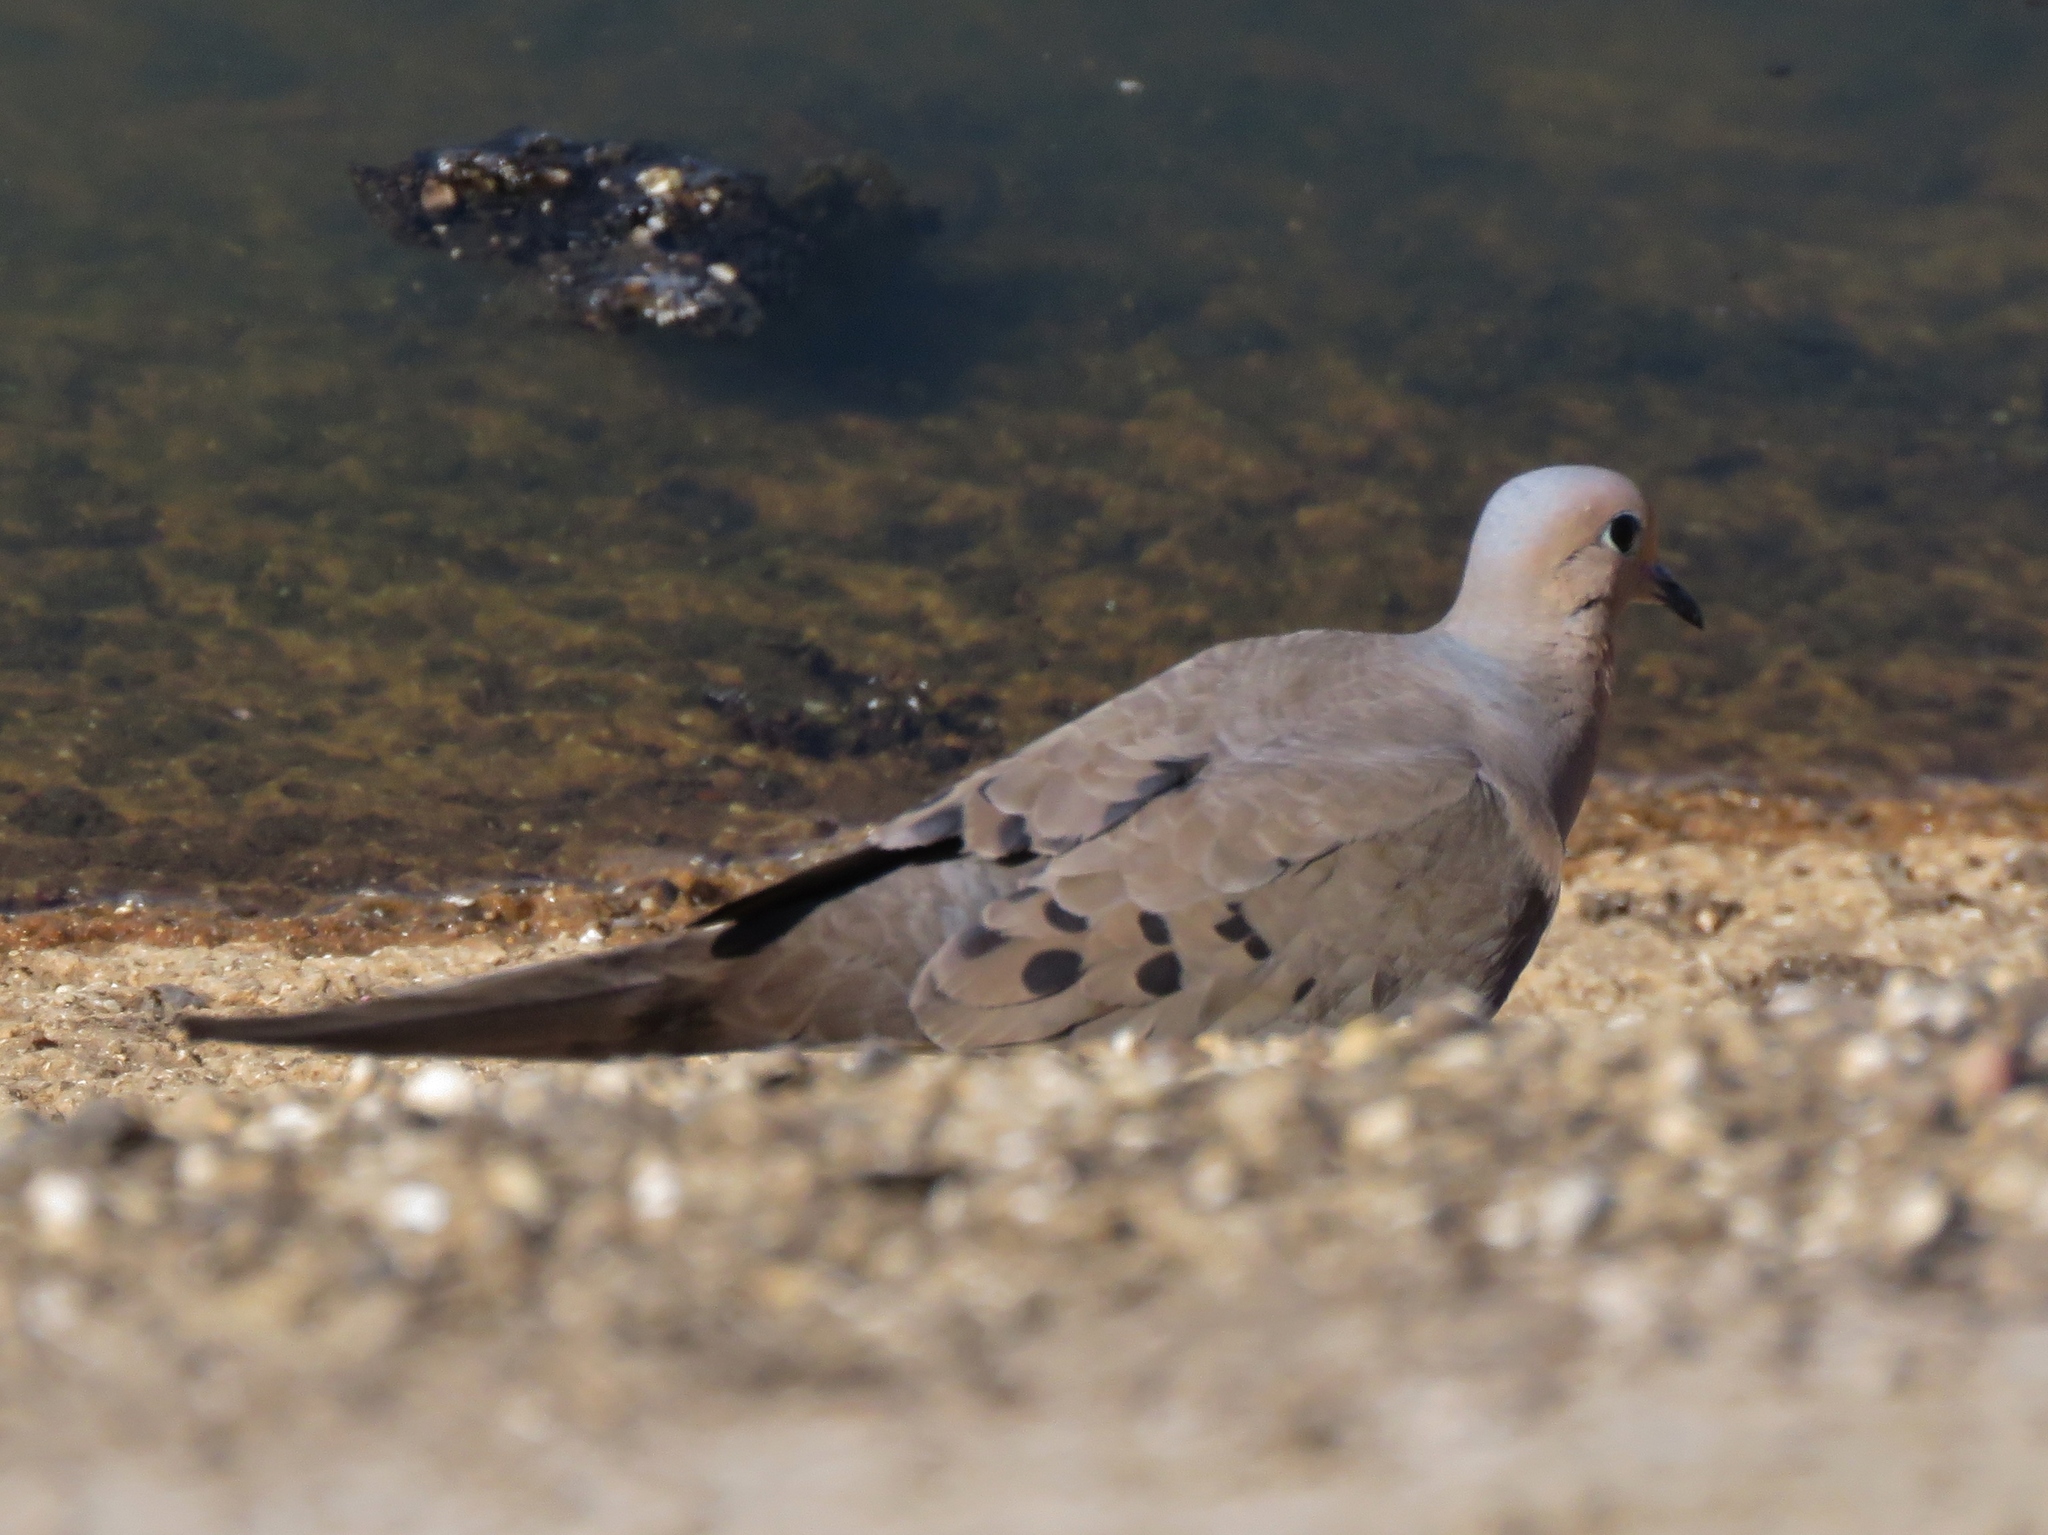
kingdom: Animalia
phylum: Chordata
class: Aves
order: Columbiformes
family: Columbidae
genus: Zenaida
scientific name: Zenaida macroura
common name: Mourning dove
